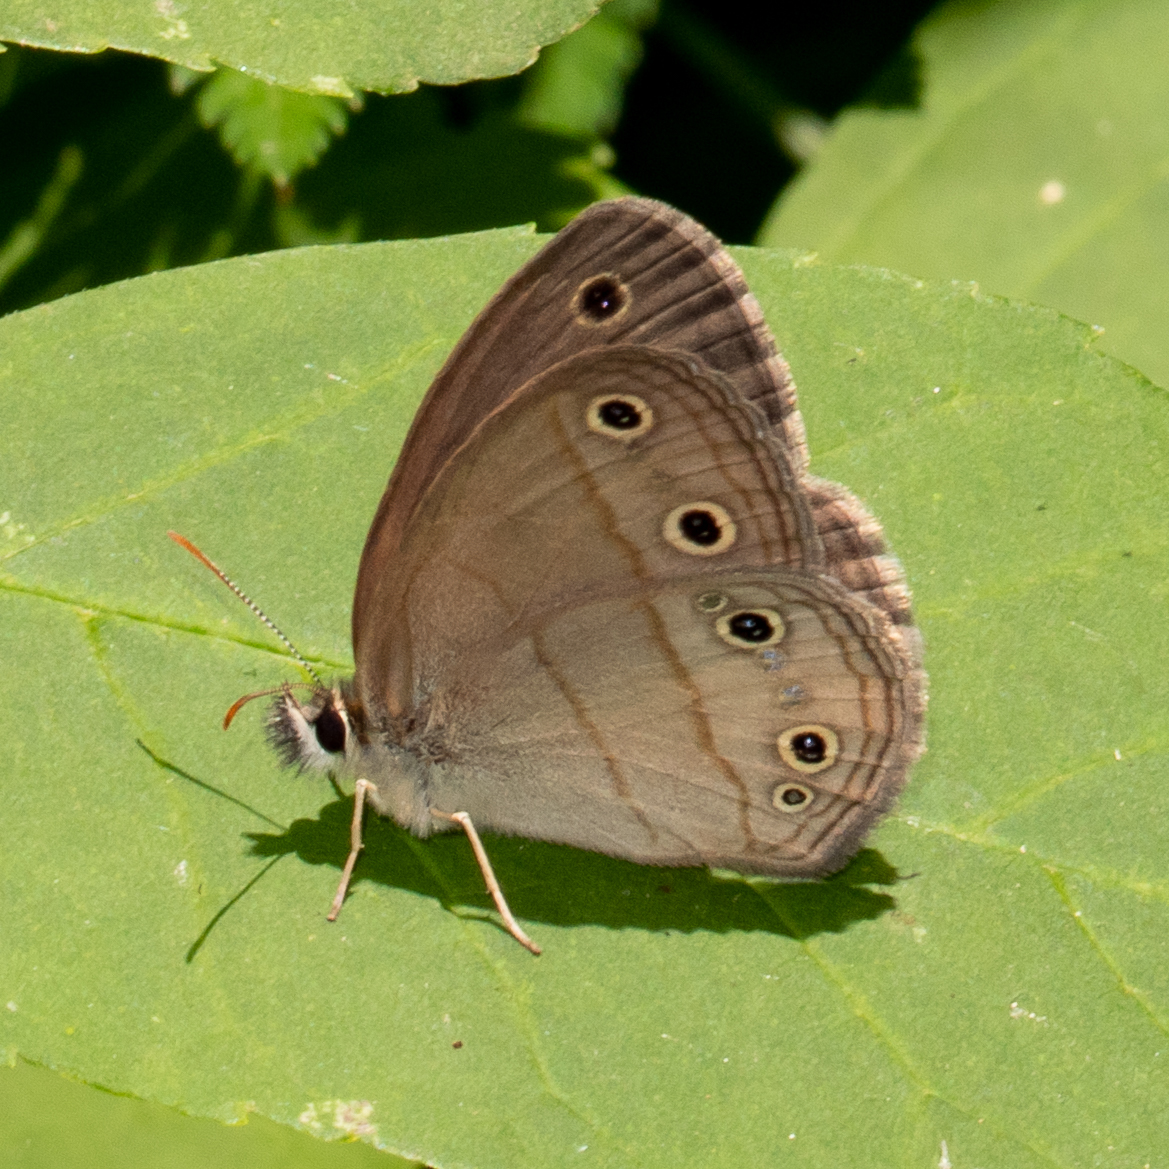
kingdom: Animalia
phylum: Arthropoda
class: Insecta
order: Lepidoptera
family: Nymphalidae
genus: Euptychia
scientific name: Euptychia cymela
